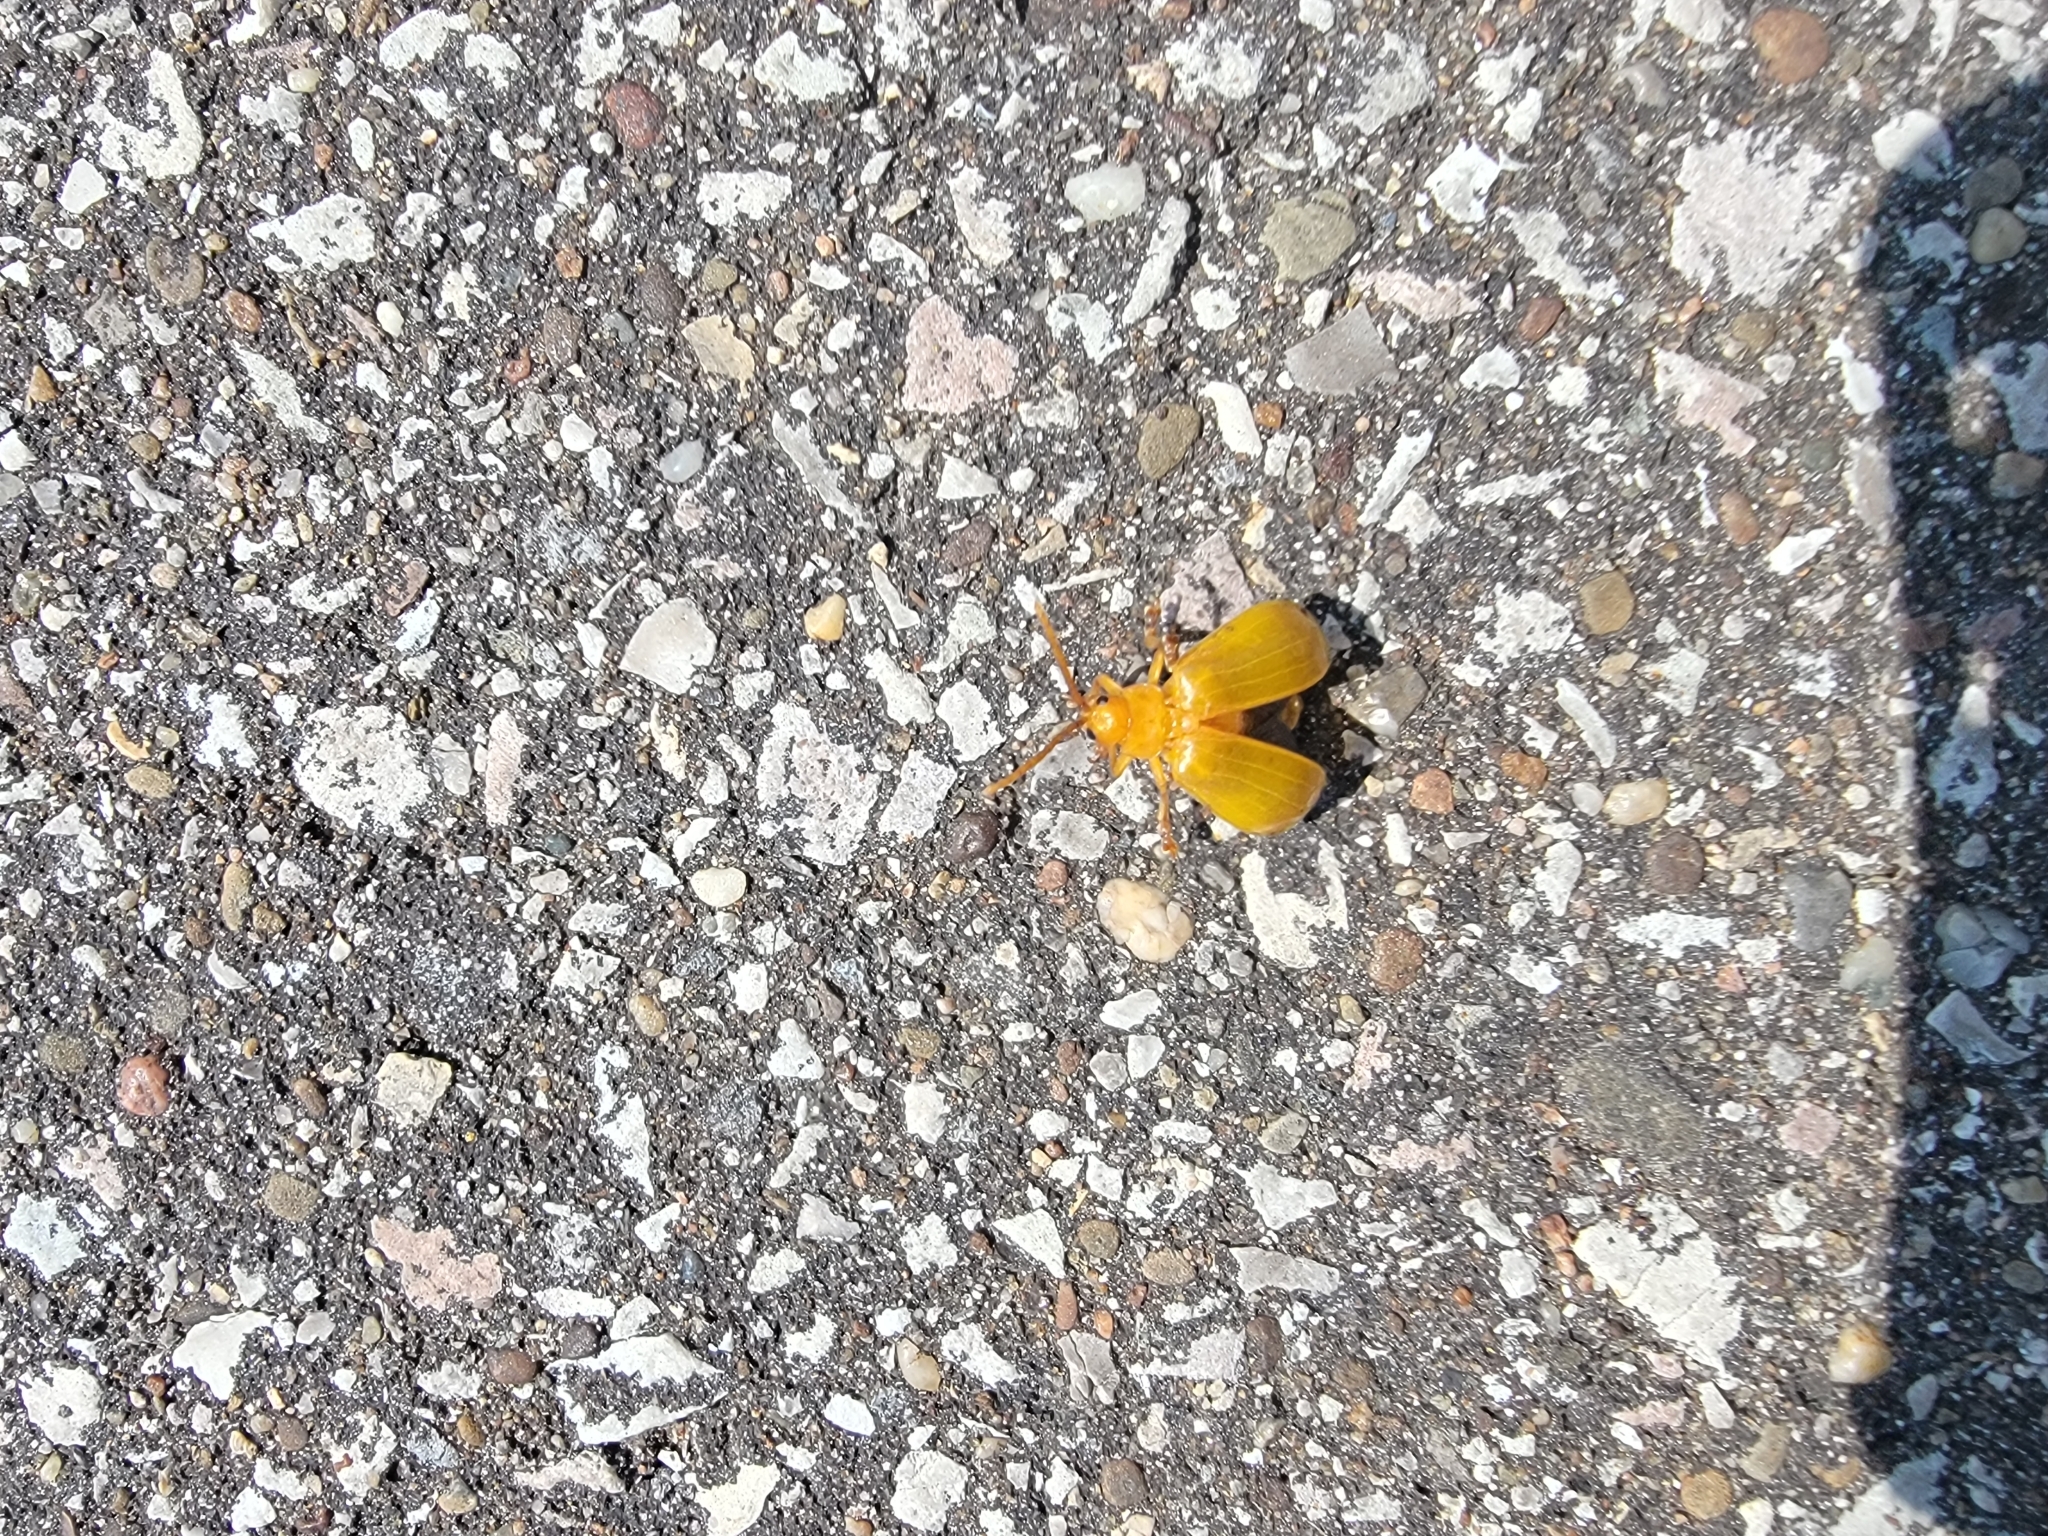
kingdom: Animalia
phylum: Arthropoda
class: Insecta
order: Coleoptera
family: Chrysomelidae
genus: Monocesta
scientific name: Monocesta coryli
